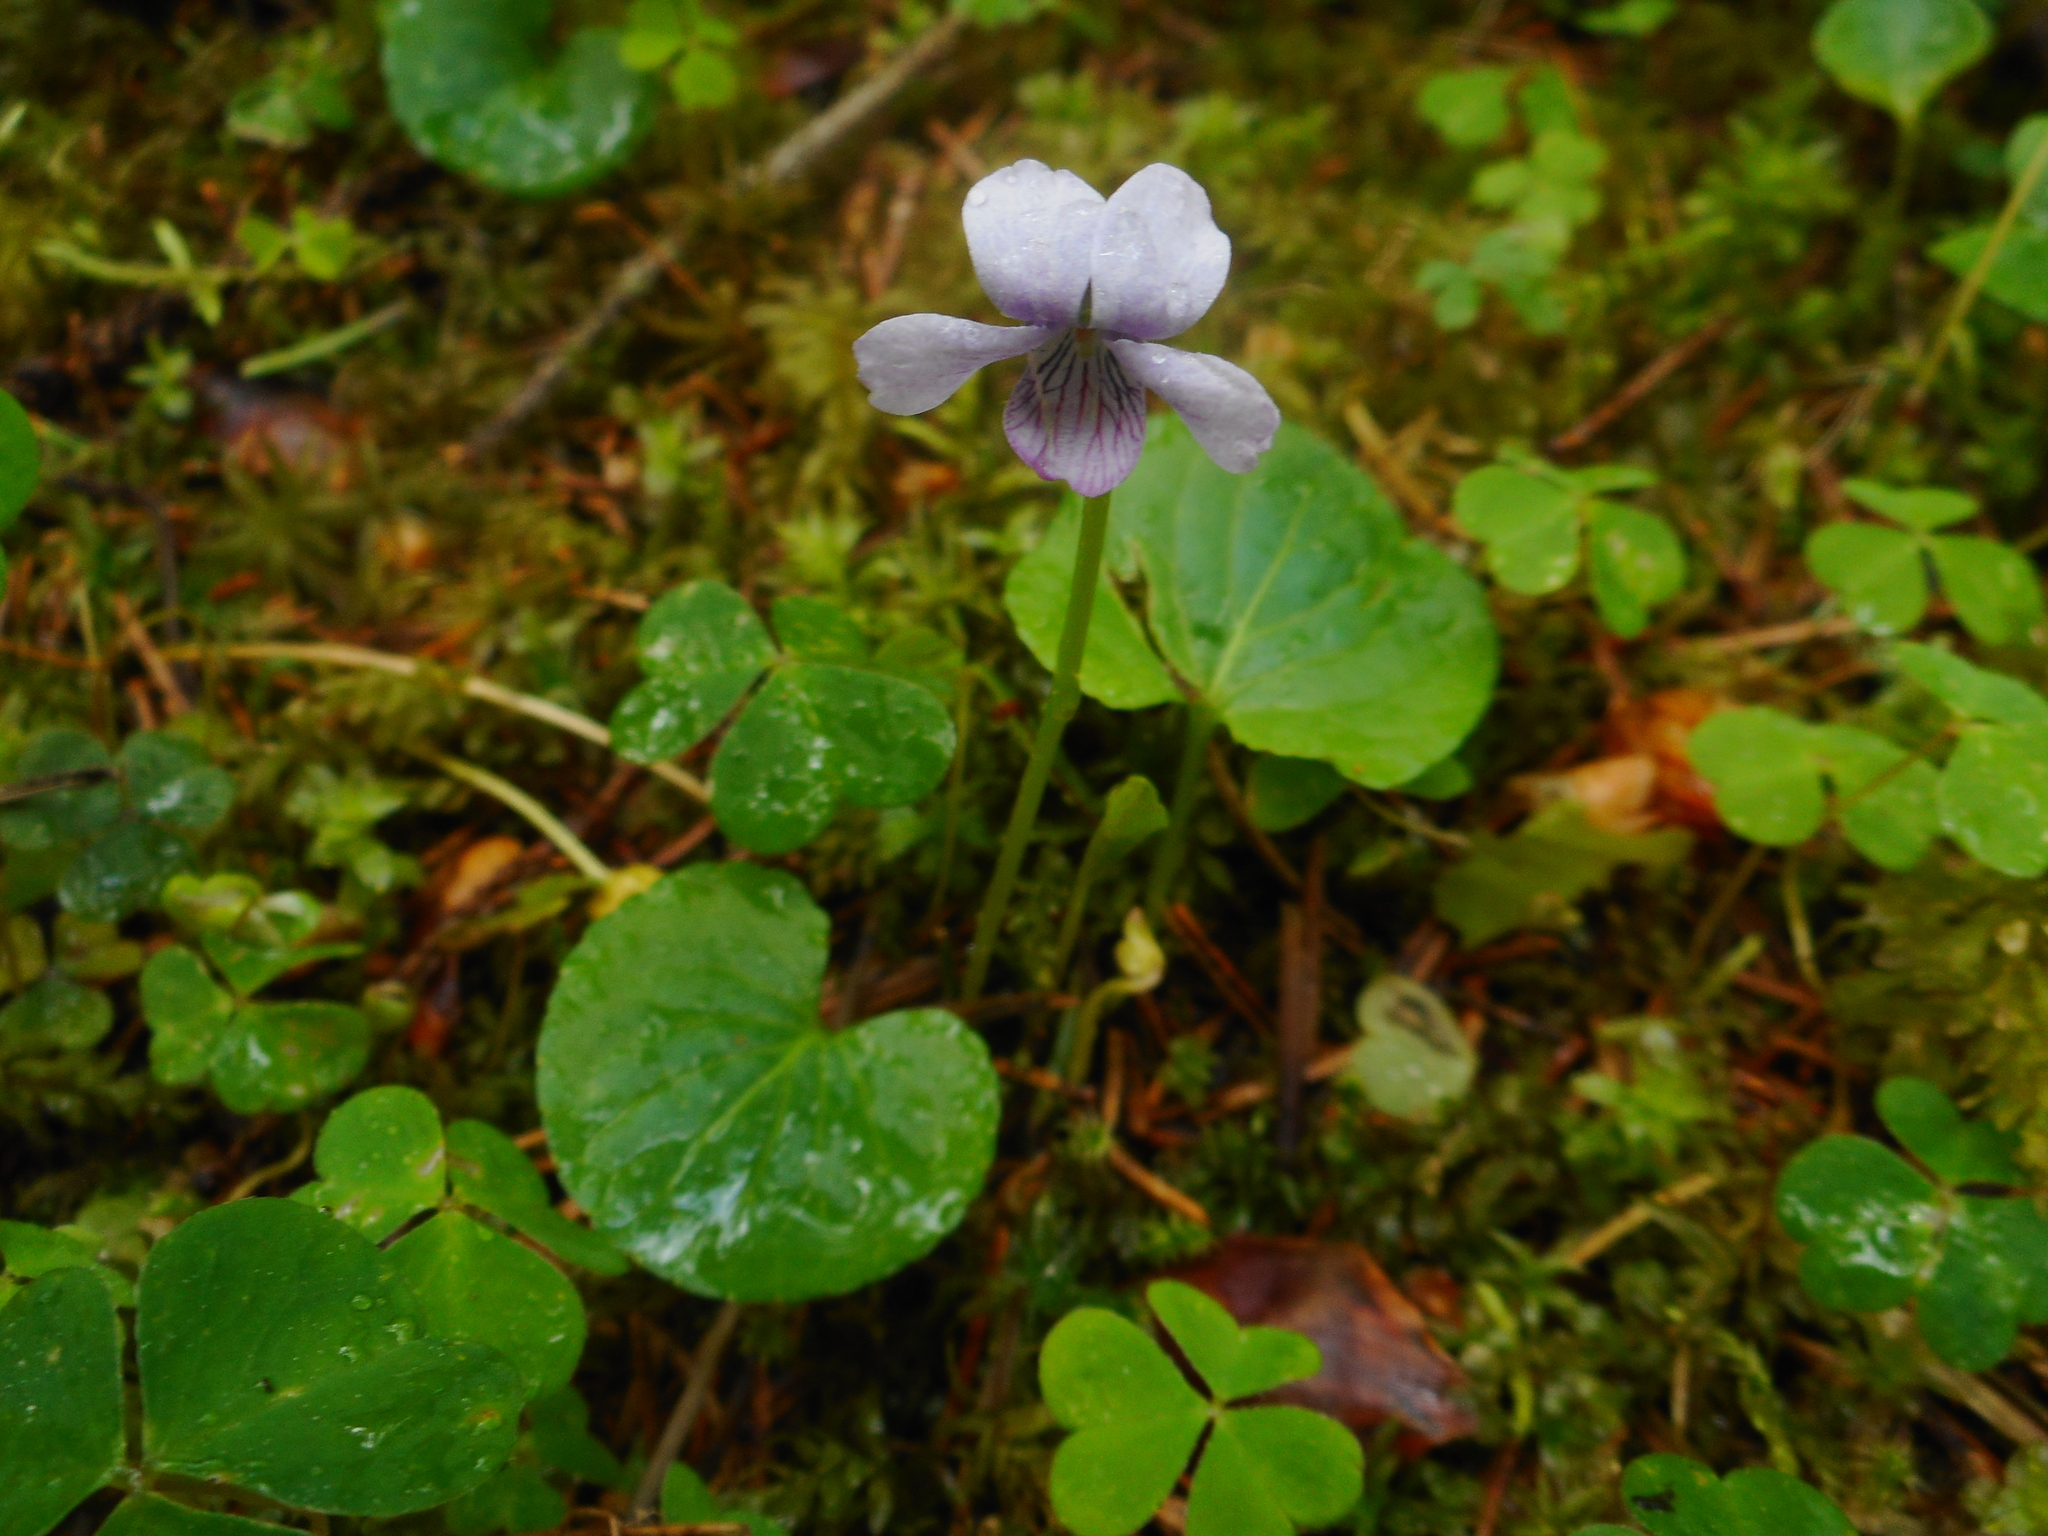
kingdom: Plantae
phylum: Tracheophyta
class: Magnoliopsida
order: Malpighiales
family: Violaceae
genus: Viola
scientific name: Viola palustris
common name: Marsh violet
